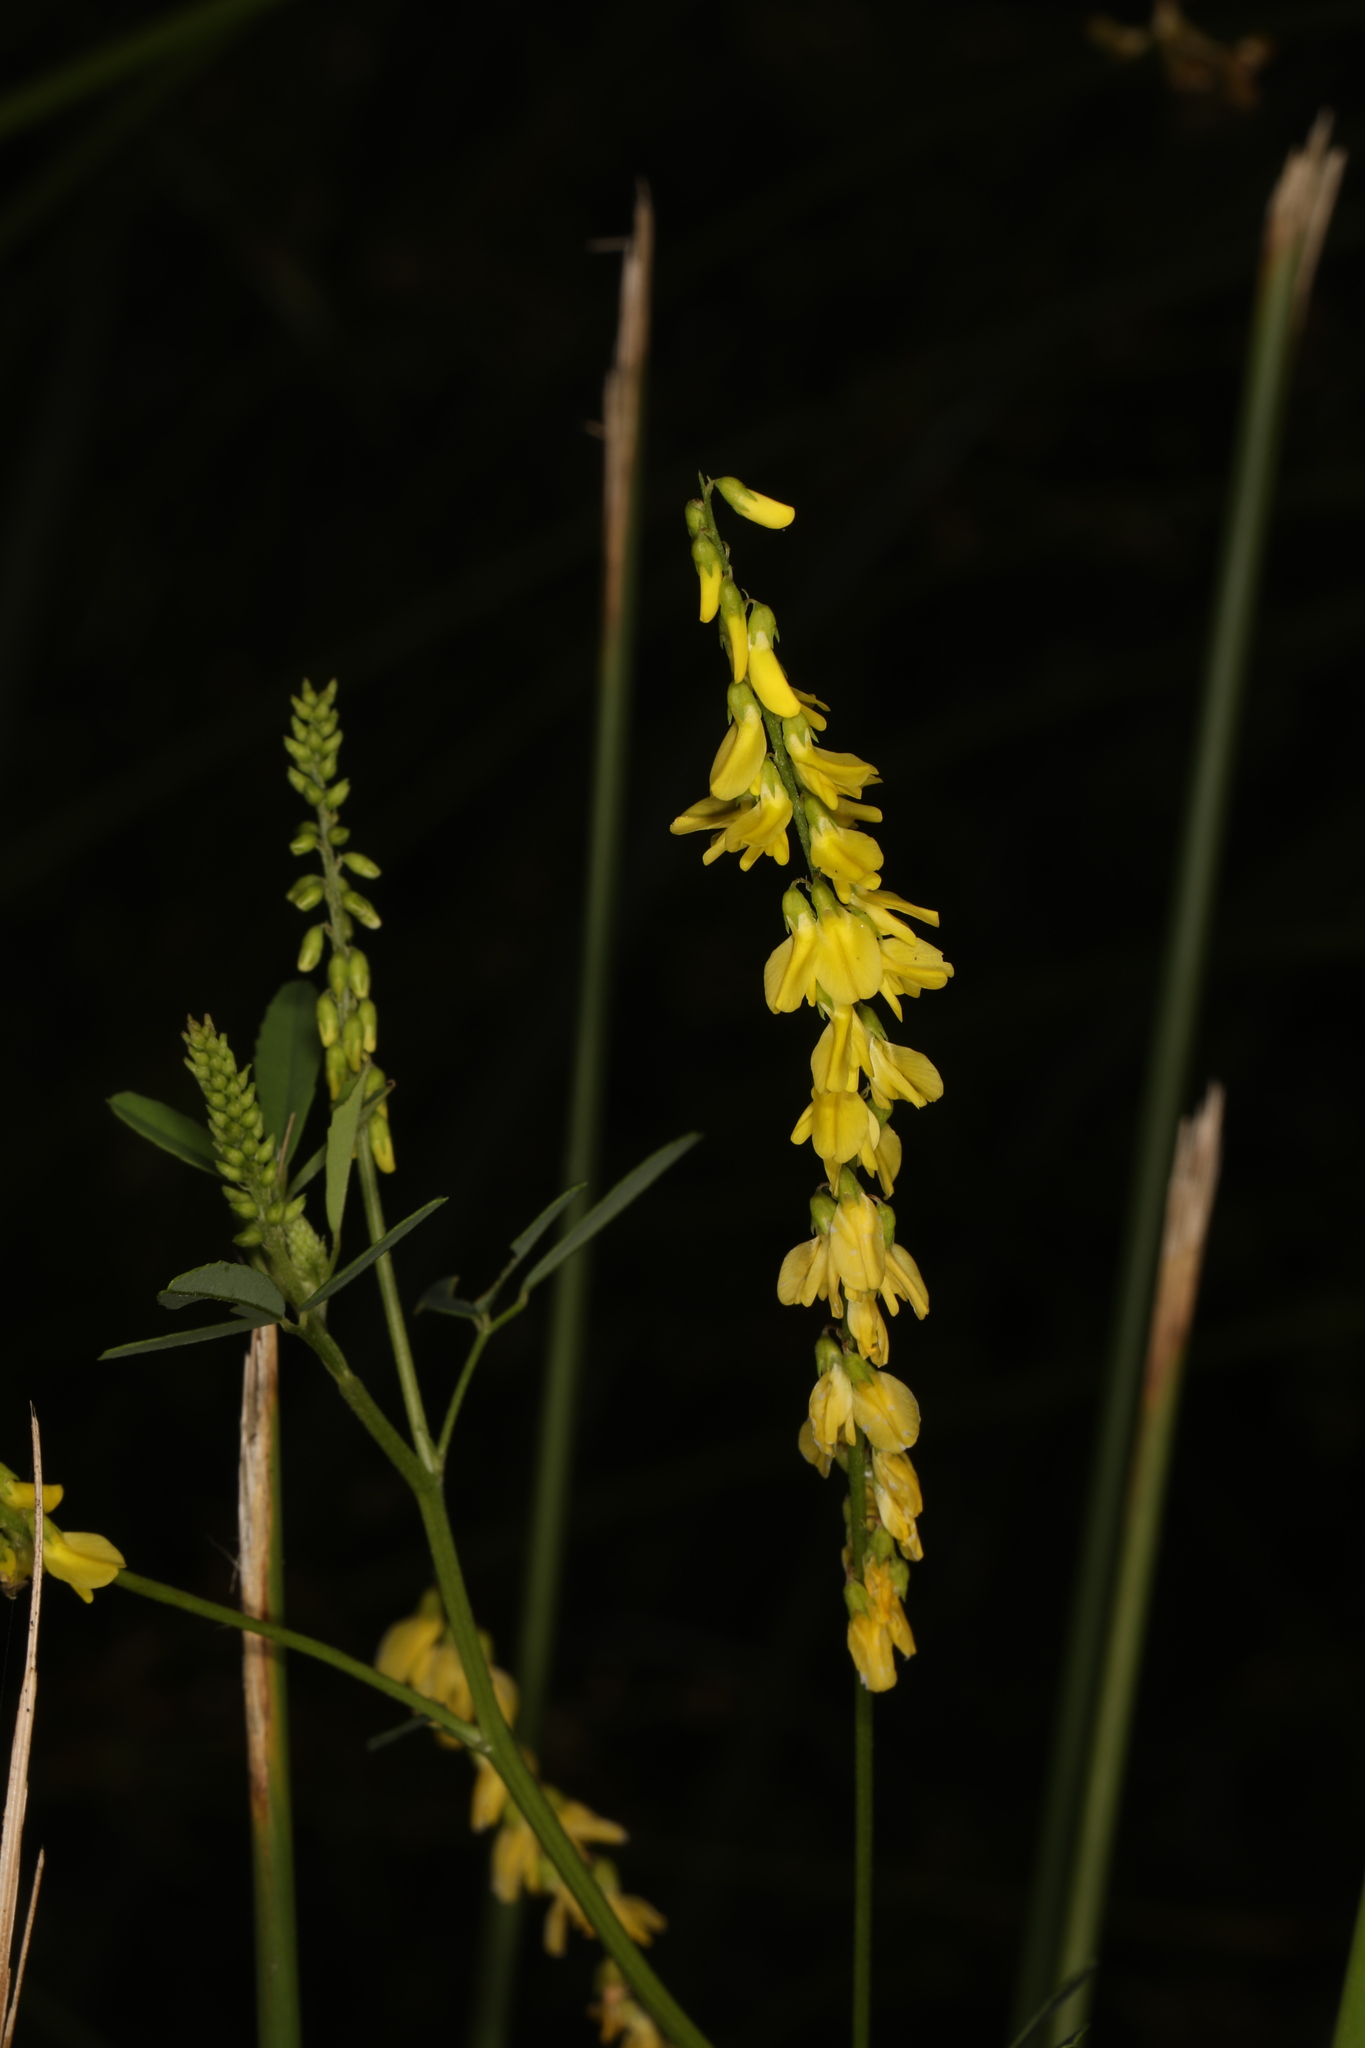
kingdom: Plantae
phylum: Tracheophyta
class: Magnoliopsida
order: Fabales
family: Fabaceae
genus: Melilotus
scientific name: Melilotus officinalis
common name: Sweetclover
